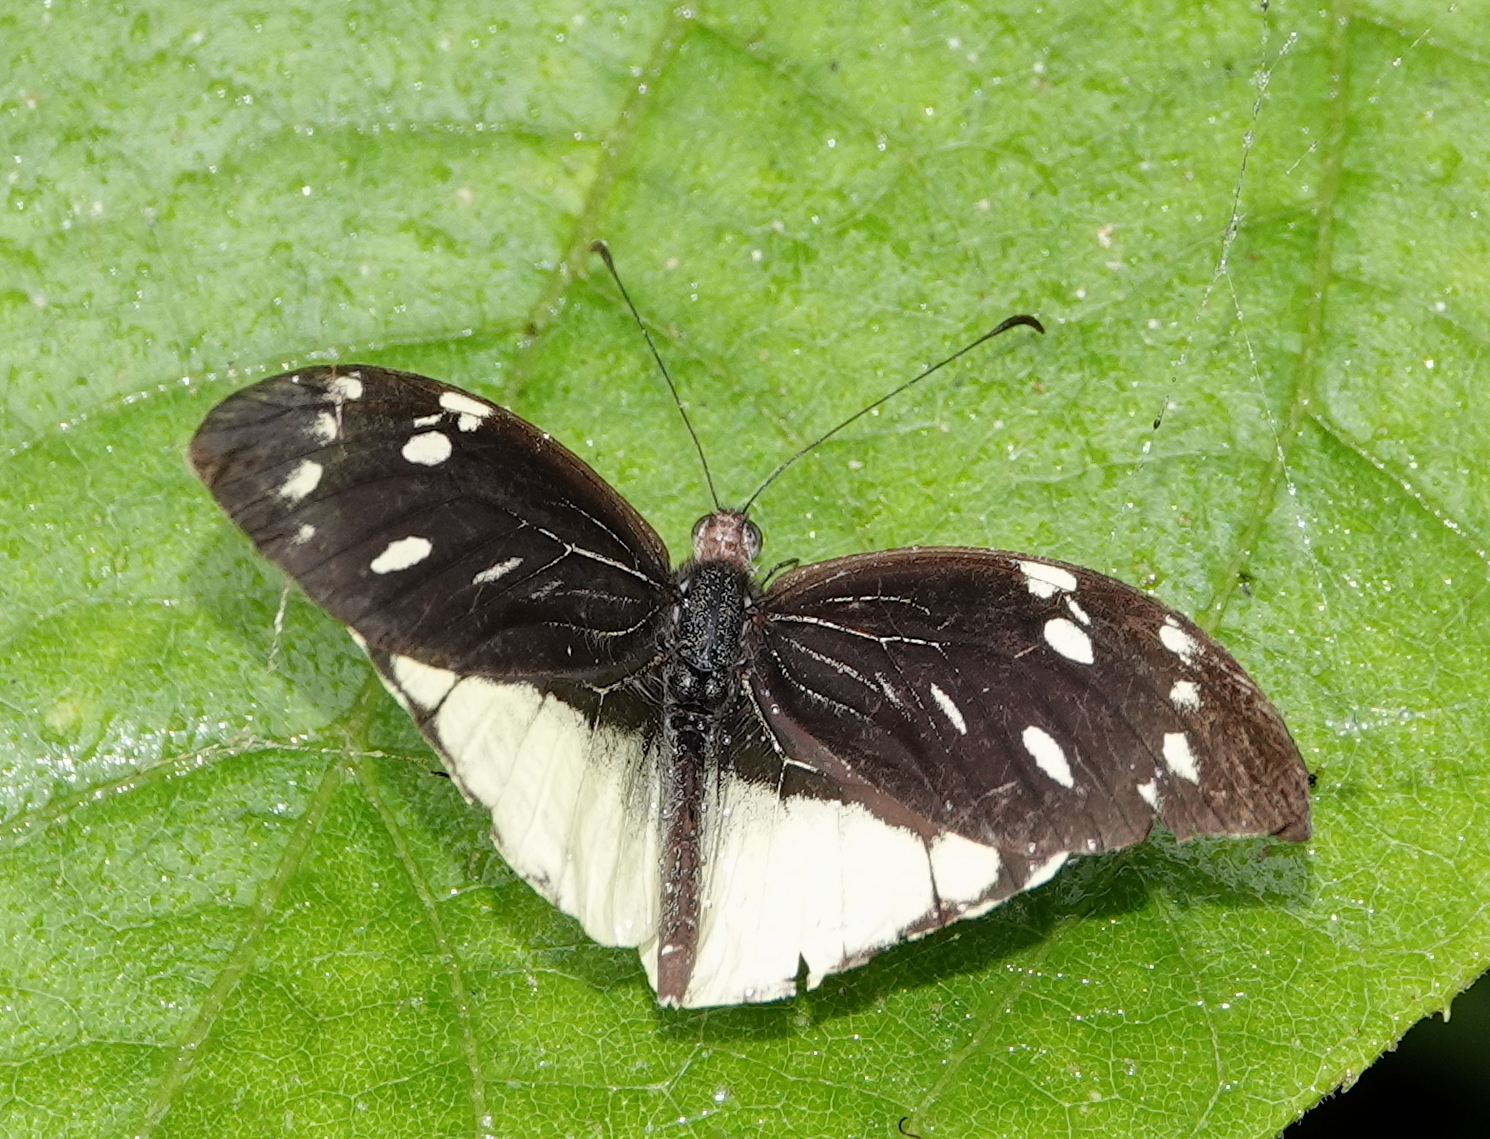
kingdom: Animalia
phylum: Arthropoda
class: Insecta
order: Lepidoptera
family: Pieridae
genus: Lieinix
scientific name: Lieinix nemesis
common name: Frosted mimic-white
